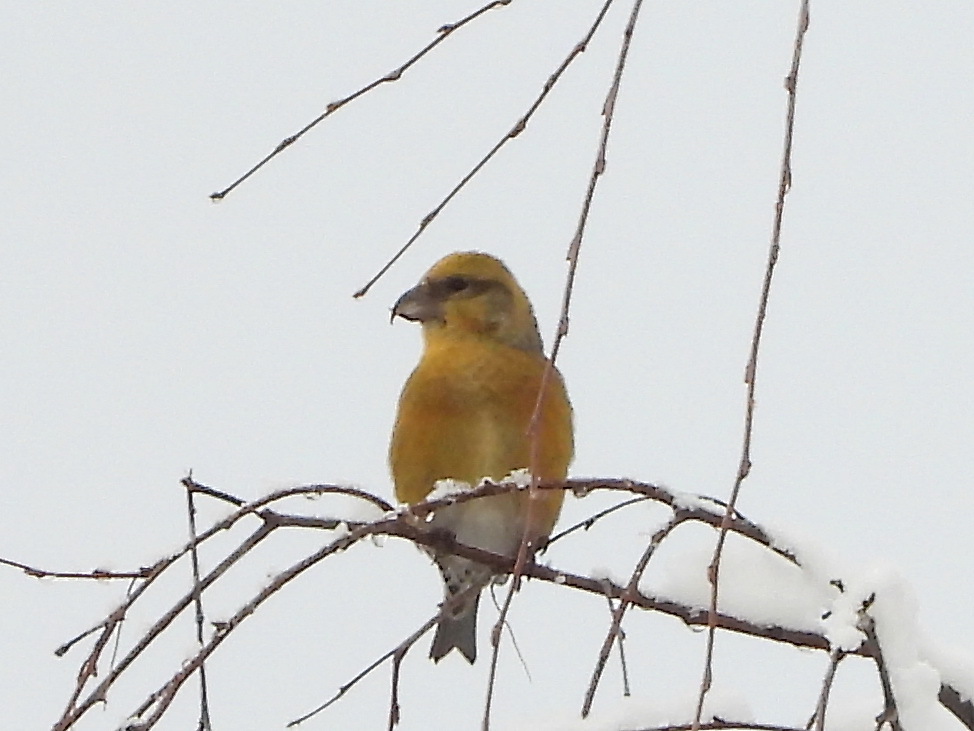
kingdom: Animalia
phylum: Chordata
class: Aves
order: Passeriformes
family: Fringillidae
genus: Loxia
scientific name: Loxia curvirostra
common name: Red crossbill
